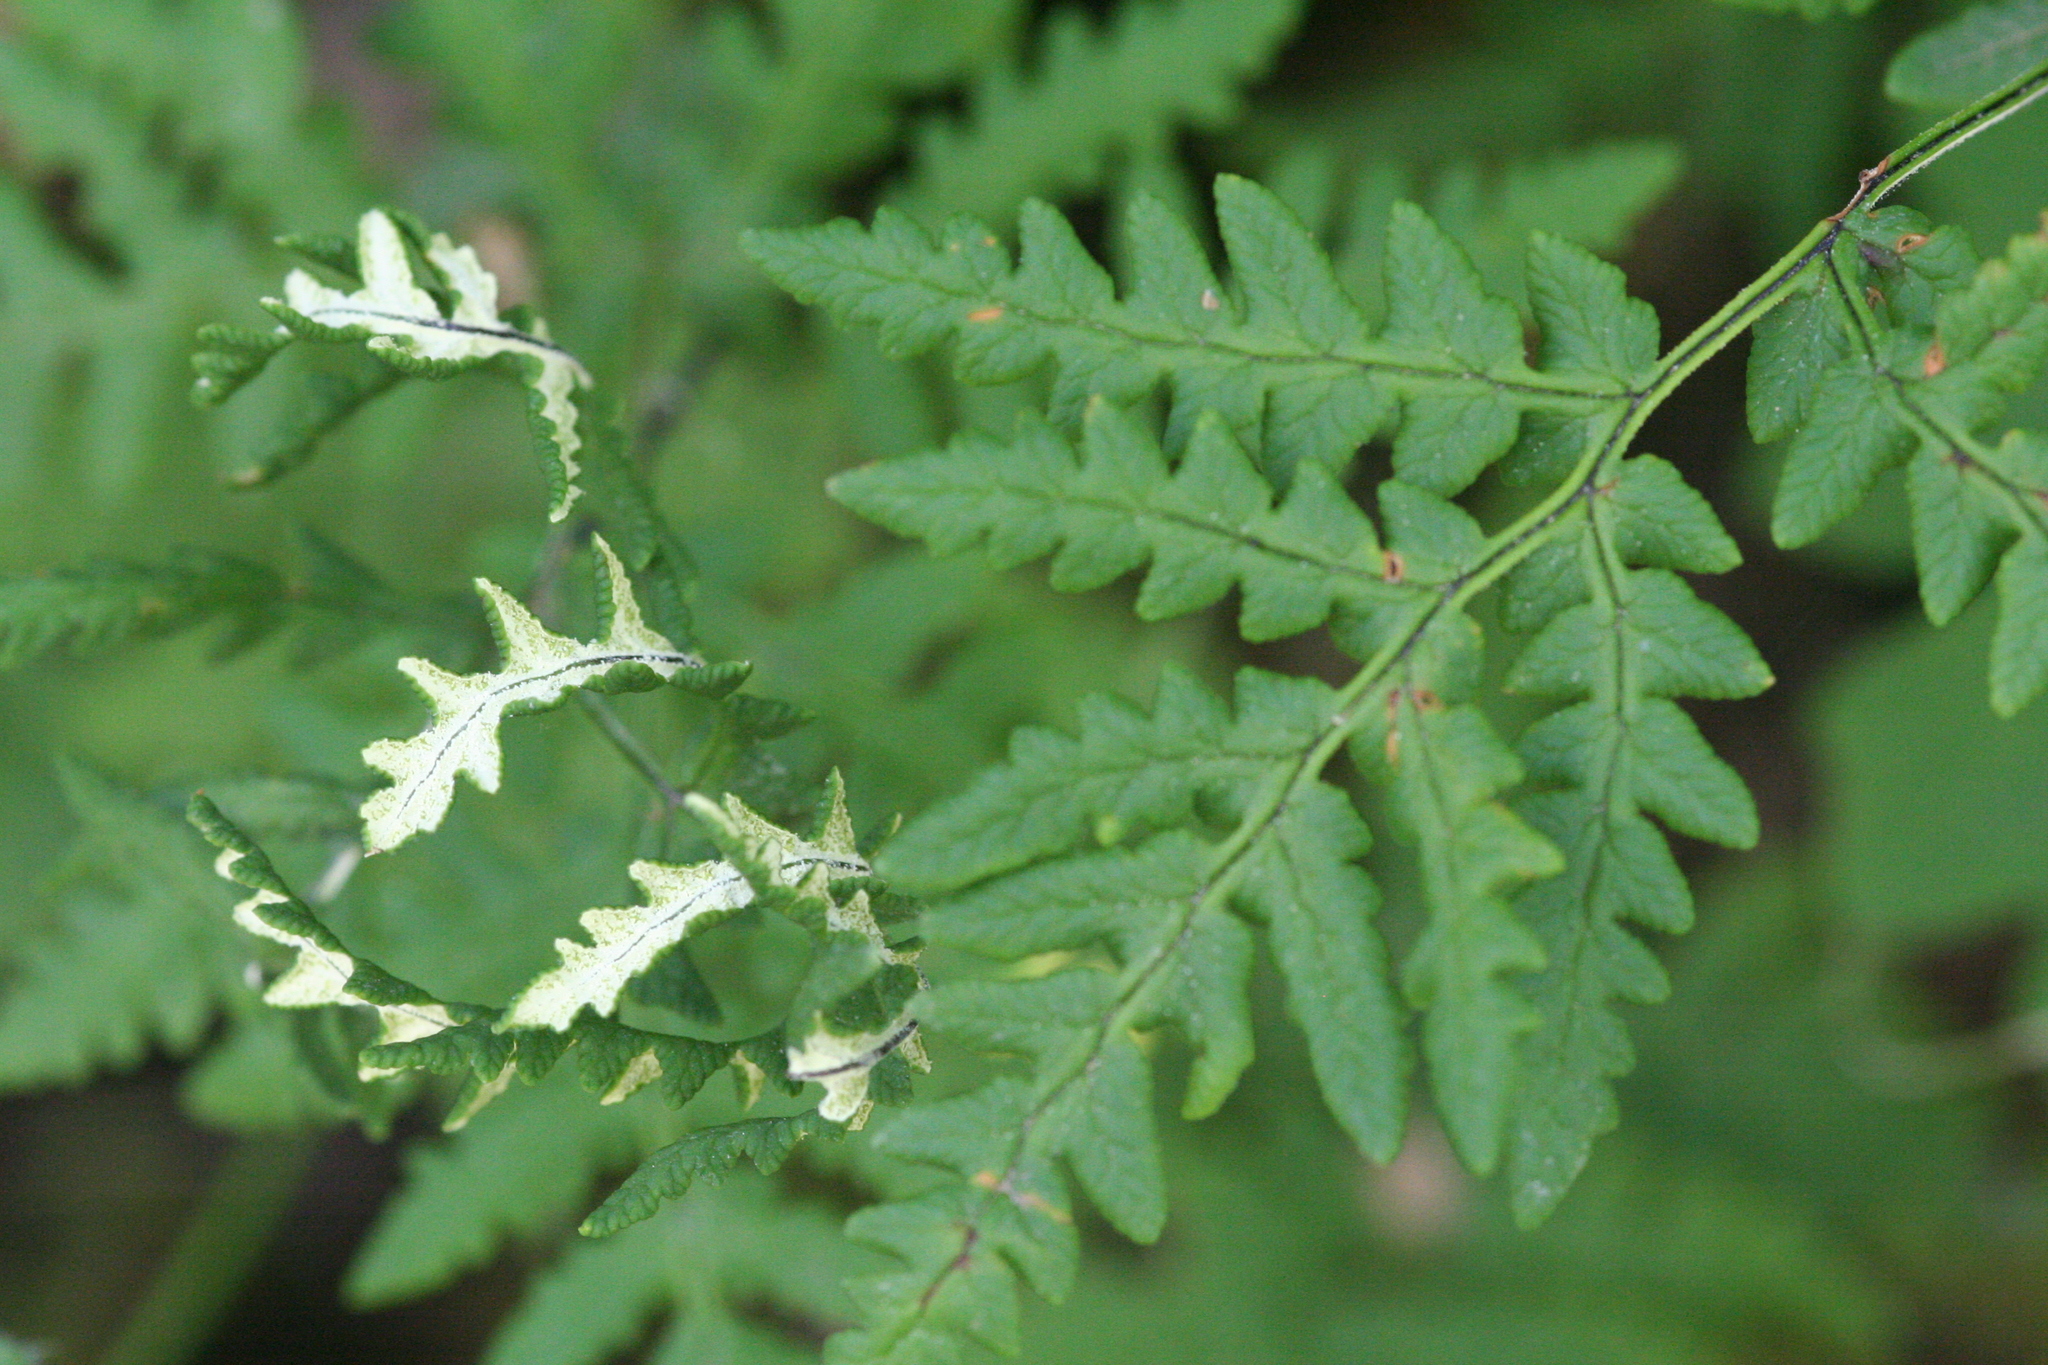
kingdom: Plantae
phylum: Tracheophyta
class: Polypodiopsida
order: Polypodiales
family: Pteridaceae
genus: Pentagramma
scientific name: Pentagramma triangularis
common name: Gold fern
